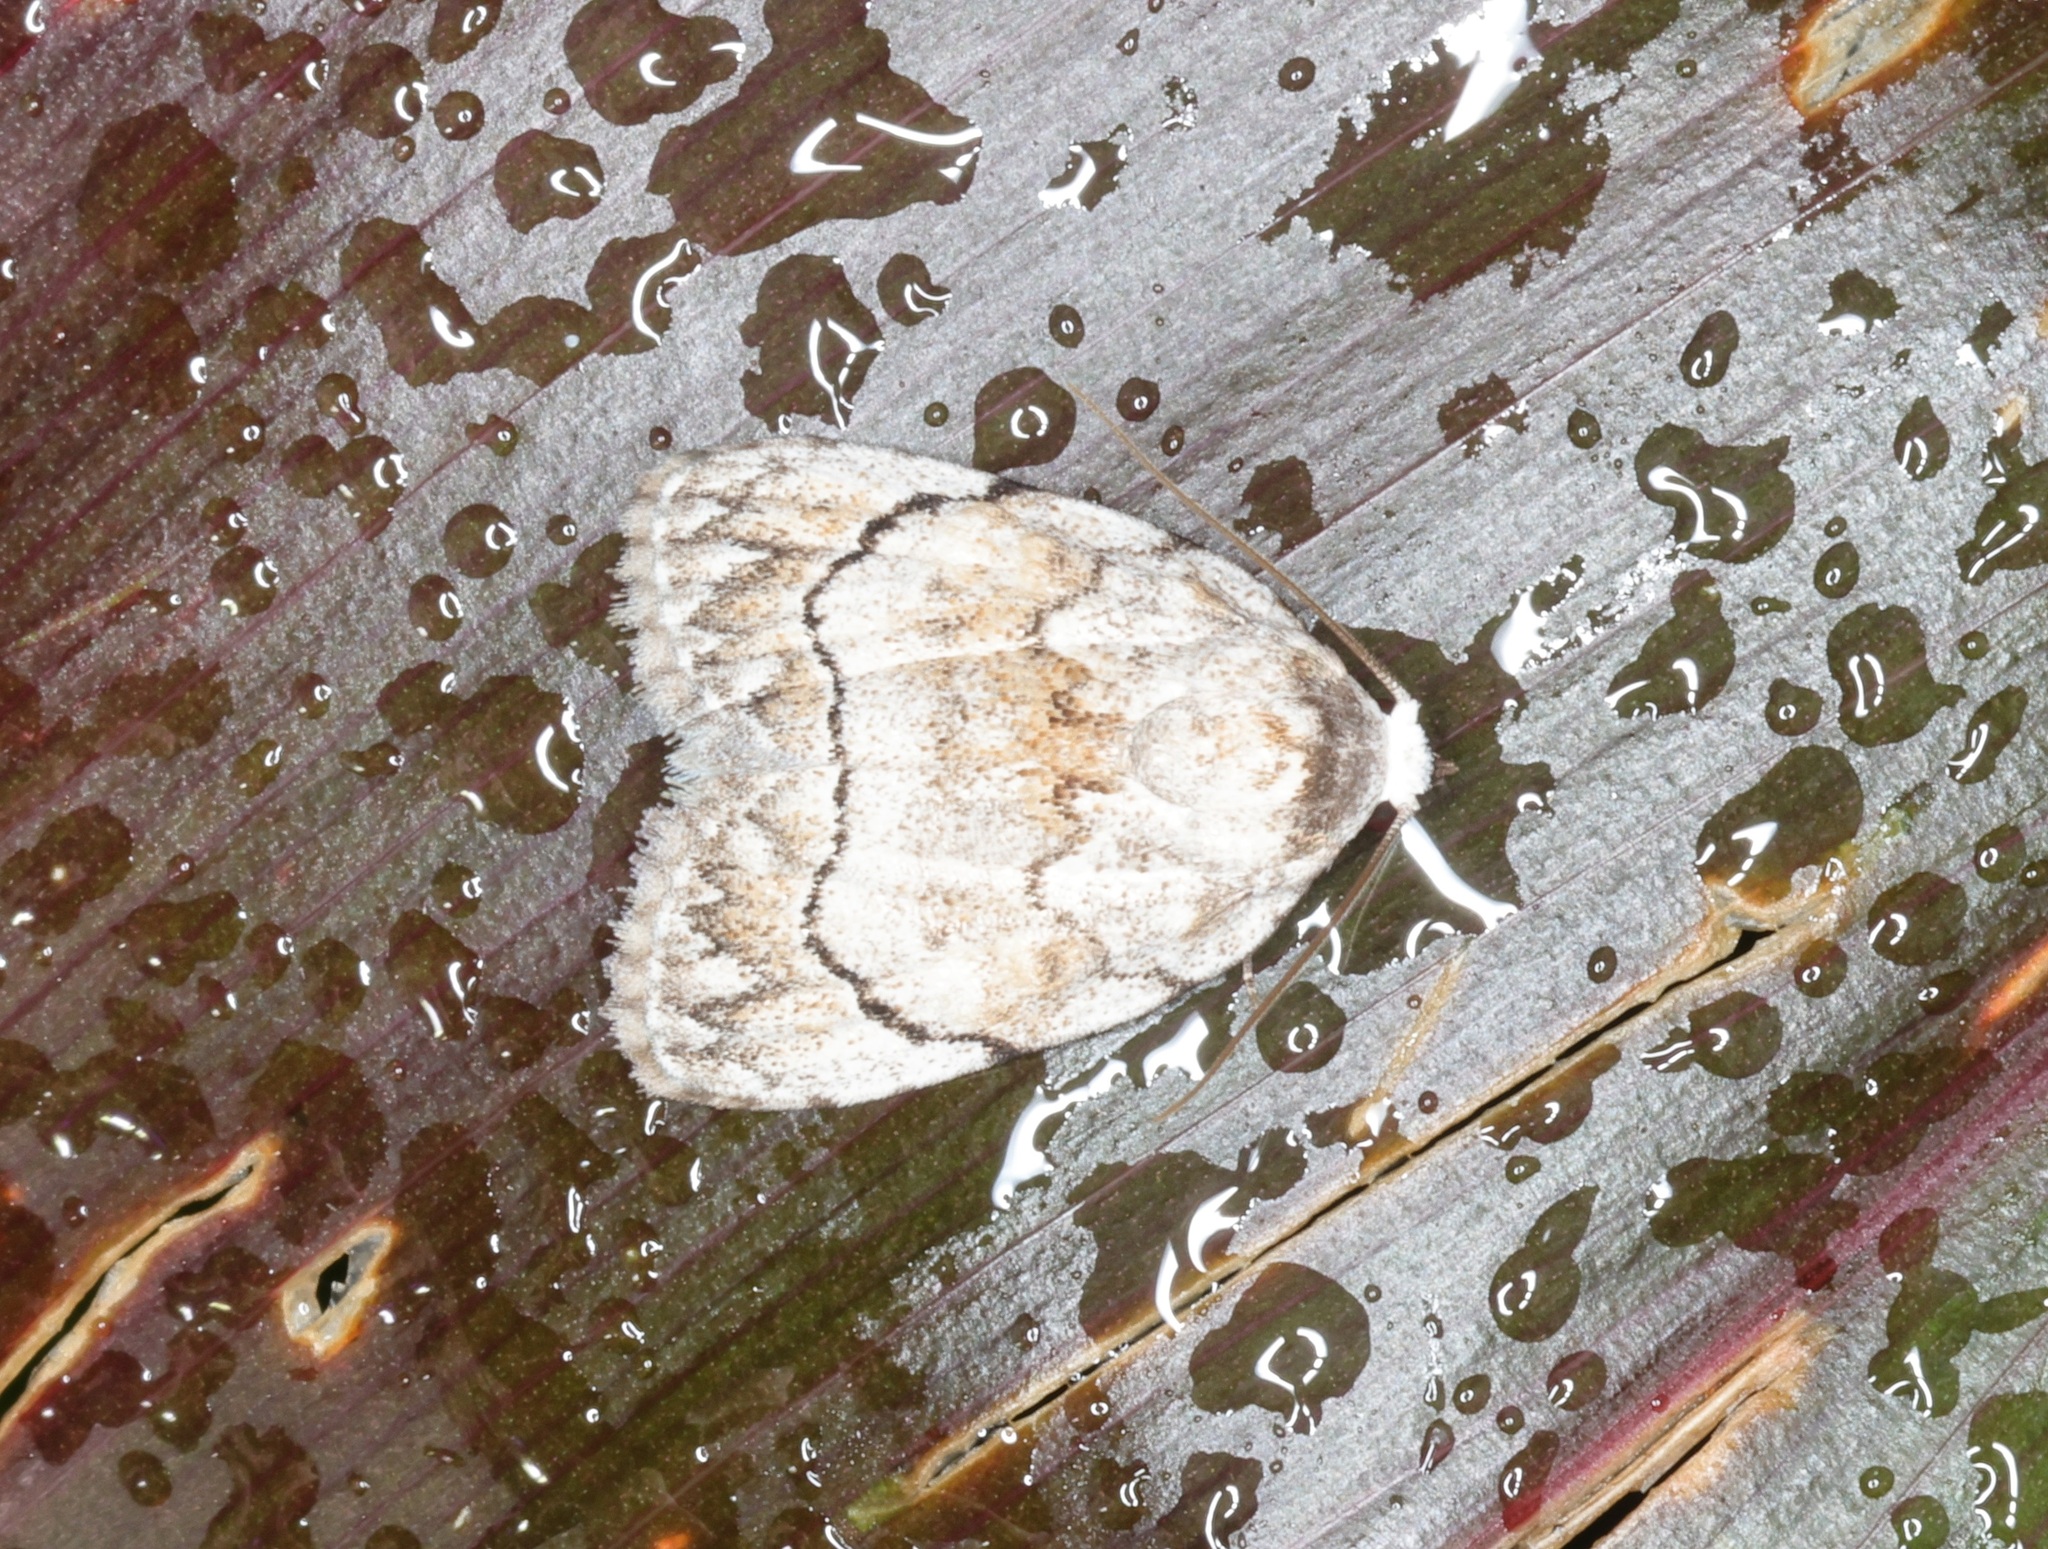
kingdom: Animalia
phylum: Arthropoda
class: Insecta
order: Lepidoptera
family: Nolidae
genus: Melanographia
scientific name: Melanographia flexilineata
